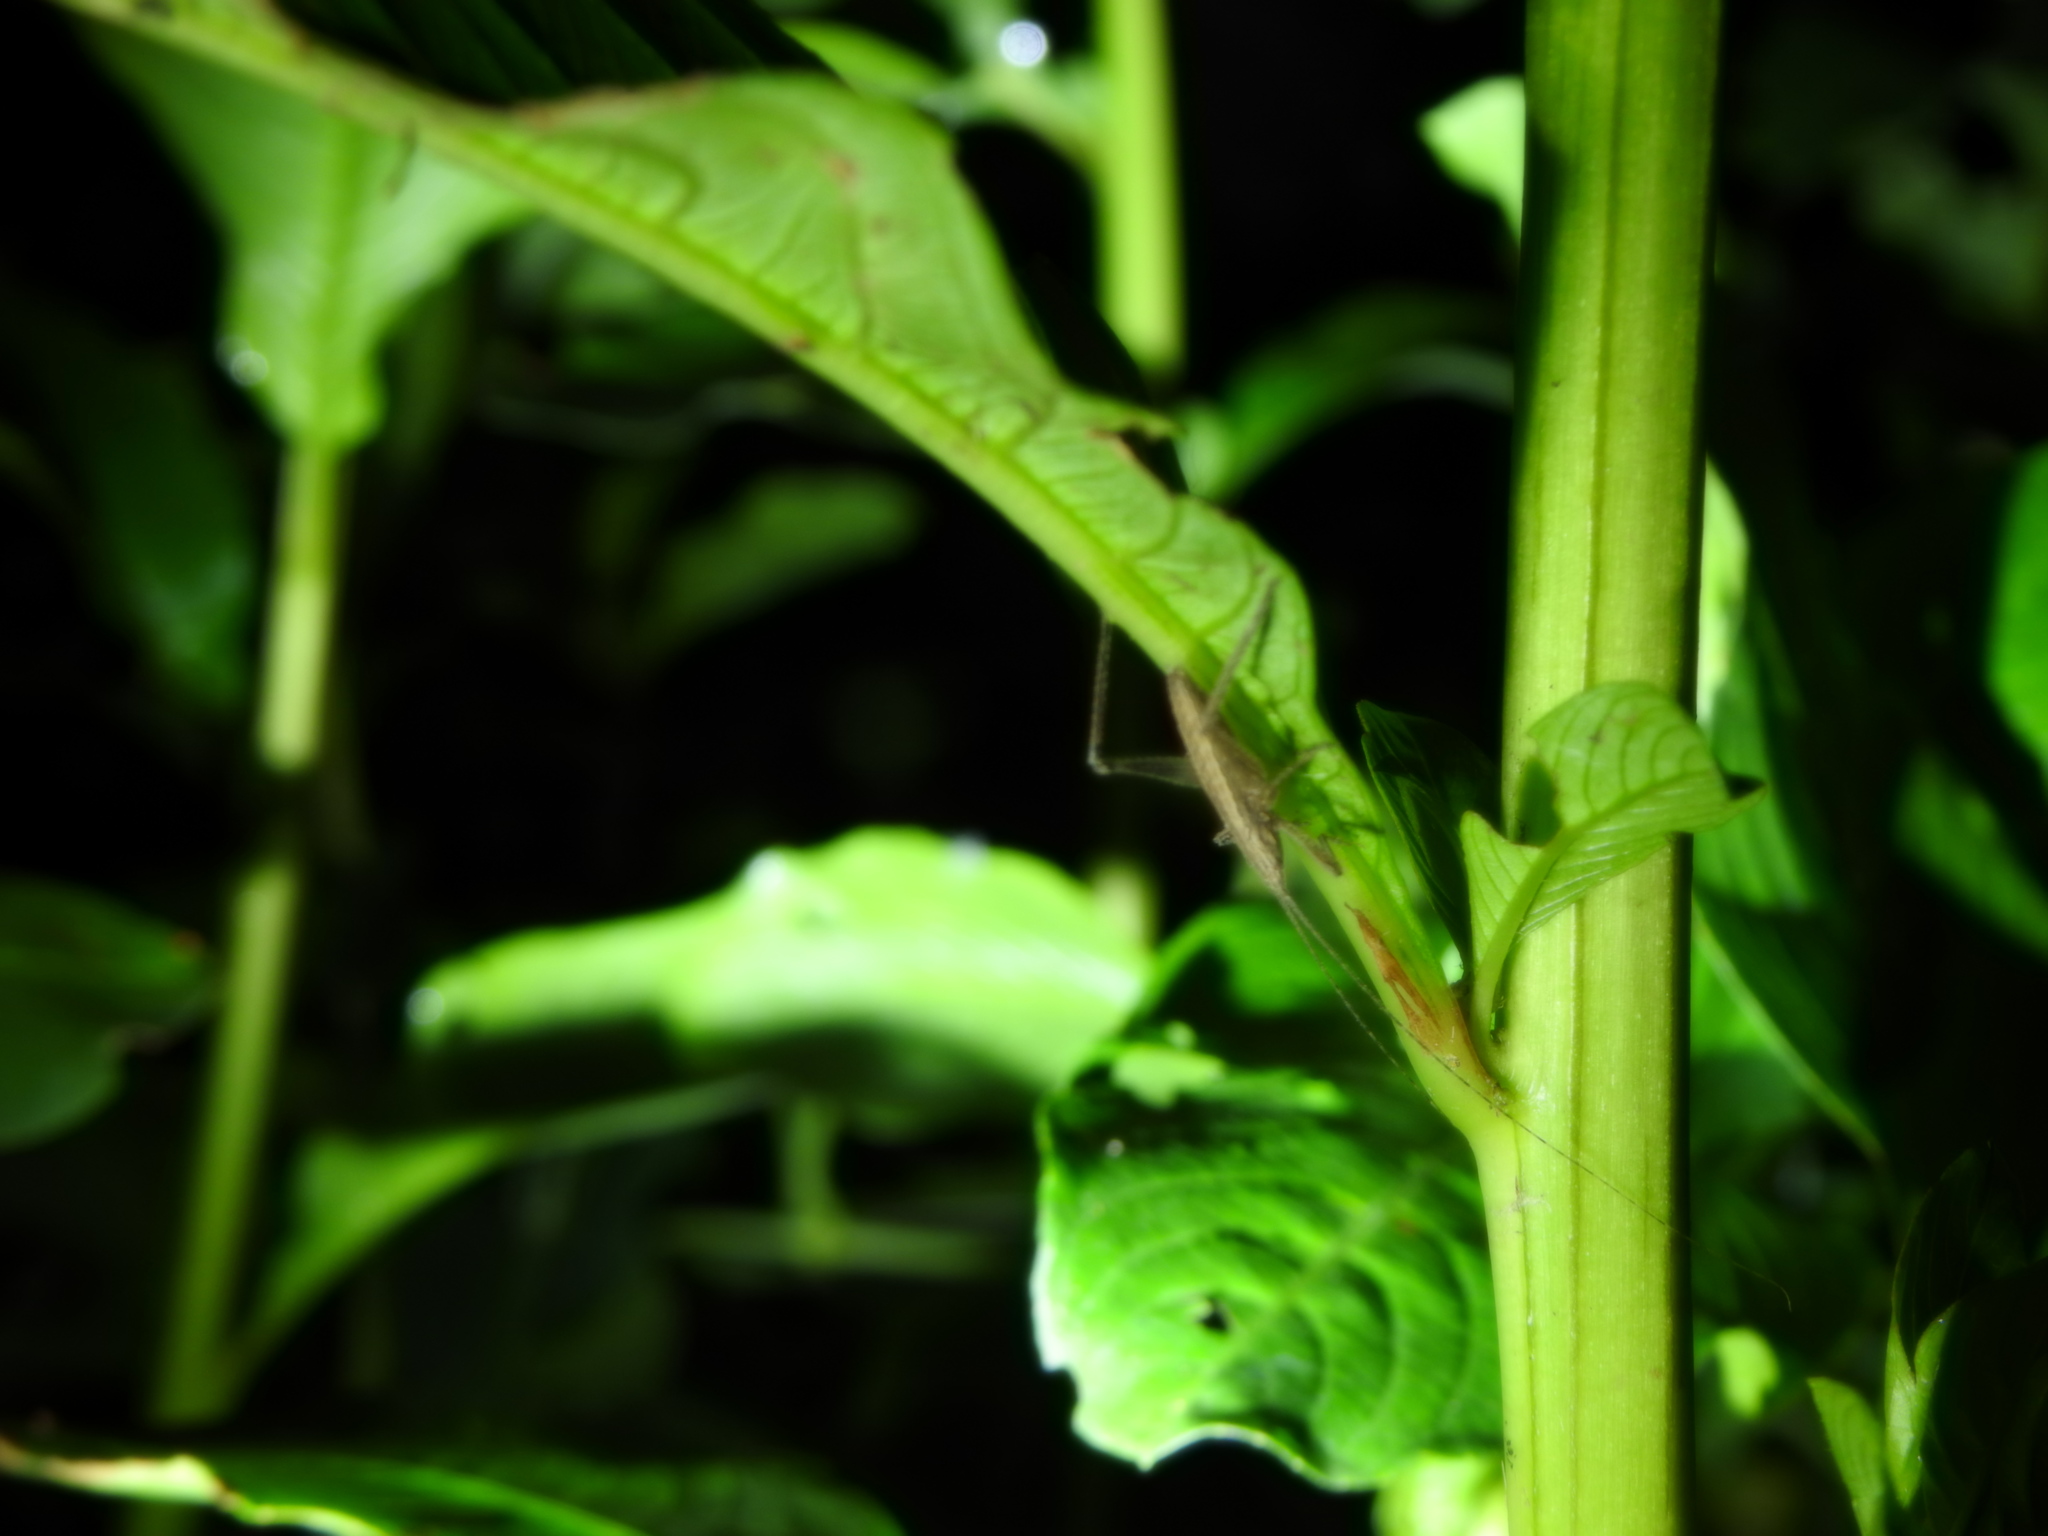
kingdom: Animalia
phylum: Arthropoda
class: Insecta
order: Orthoptera
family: Tettigoniidae
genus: Dasyscelus
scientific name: Dasyscelus normalis
